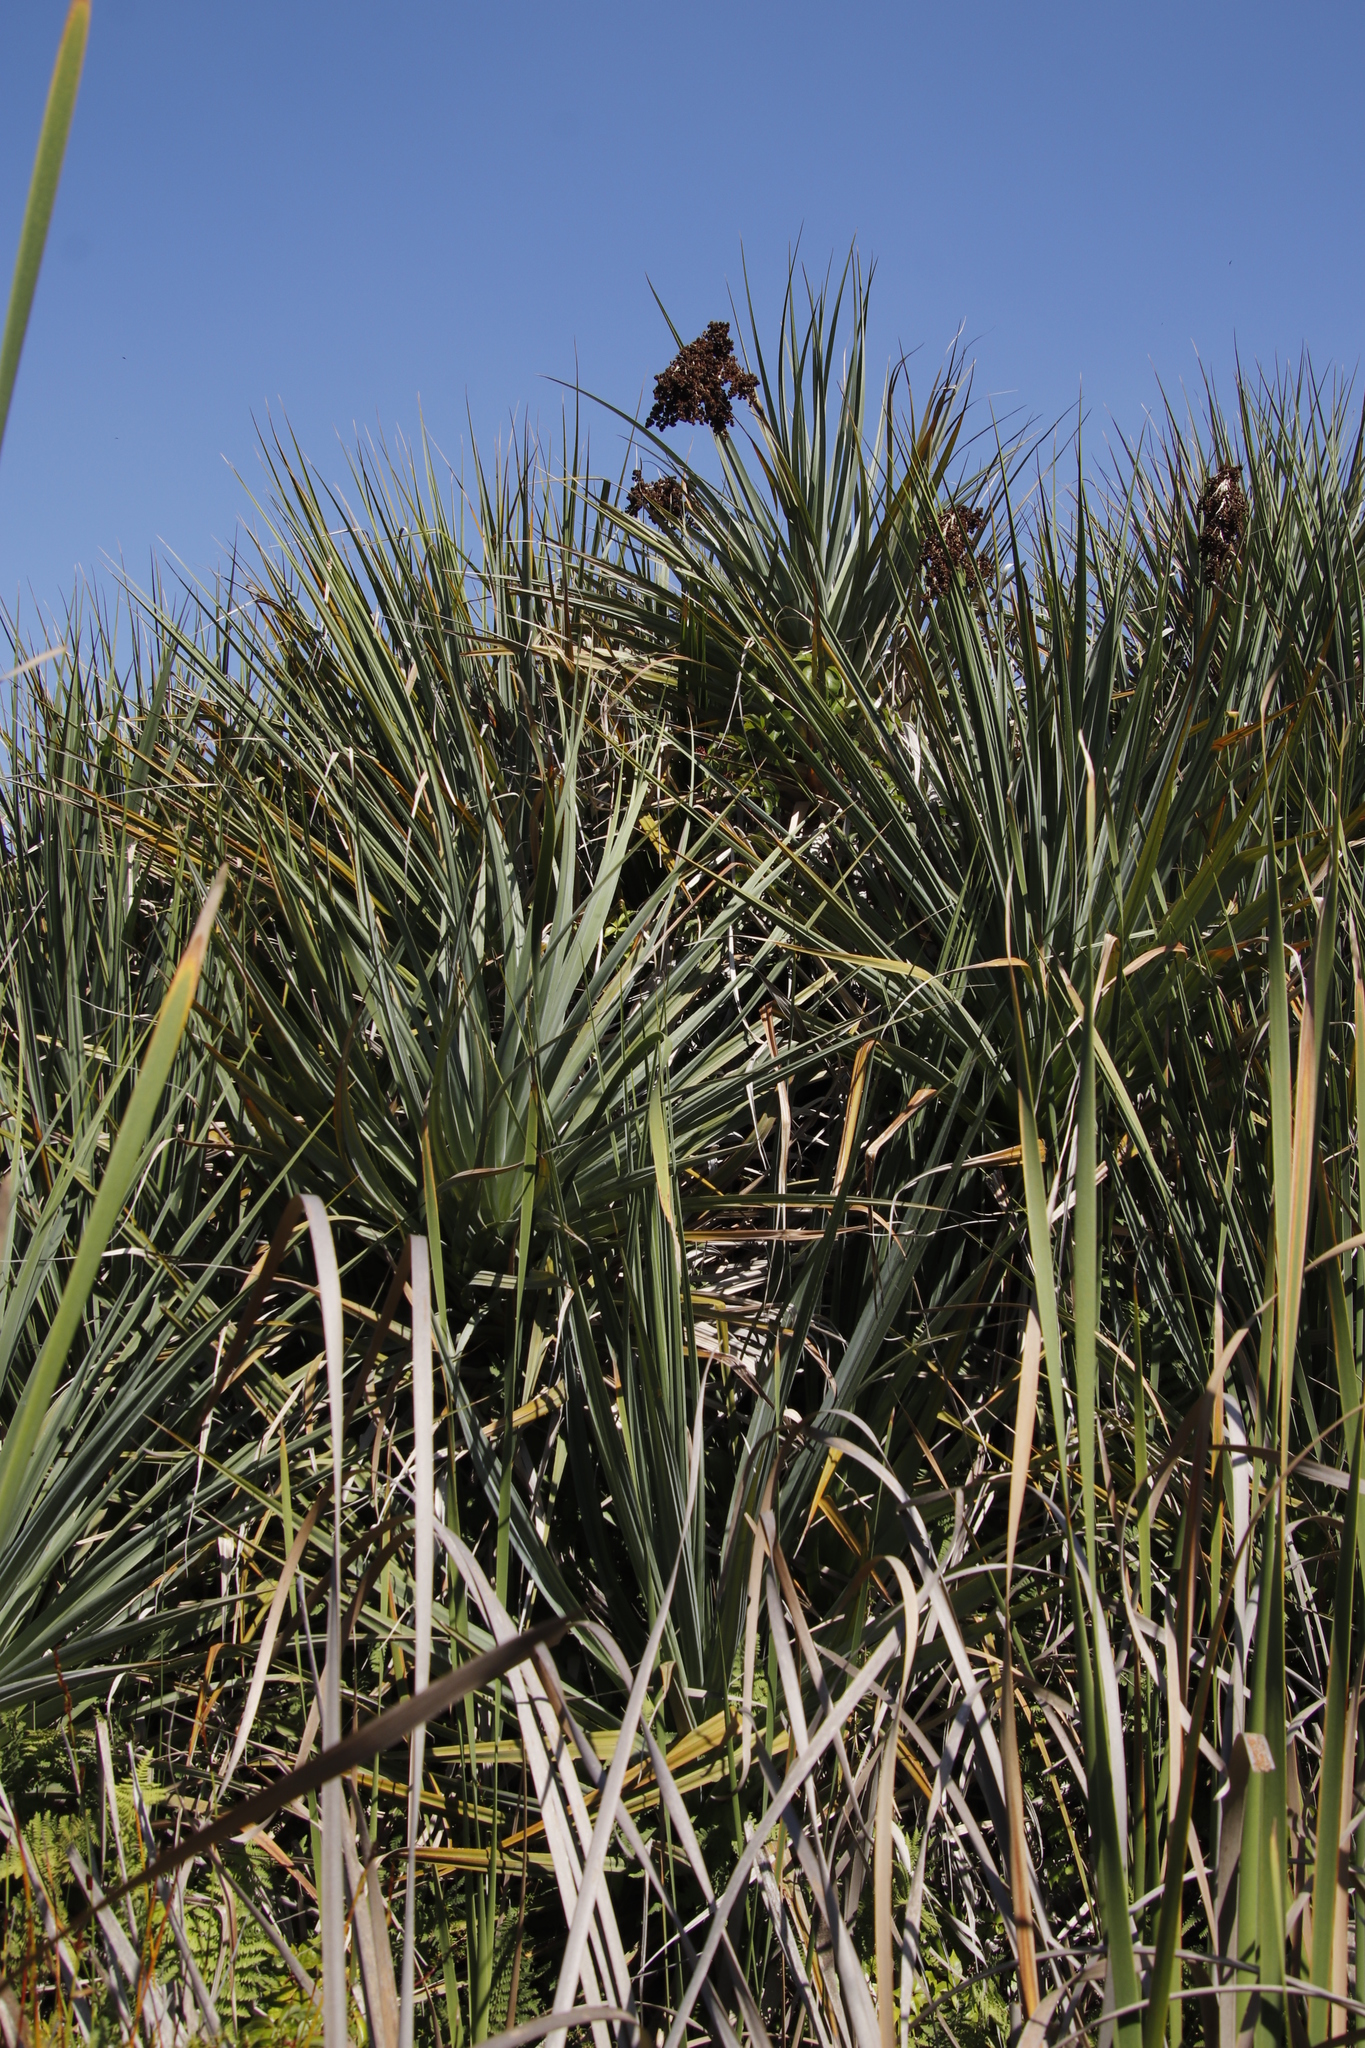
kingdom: Plantae
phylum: Tracheophyta
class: Liliopsida
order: Poales
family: Thurniaceae
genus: Prionium
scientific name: Prionium serratum
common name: Palmiet
